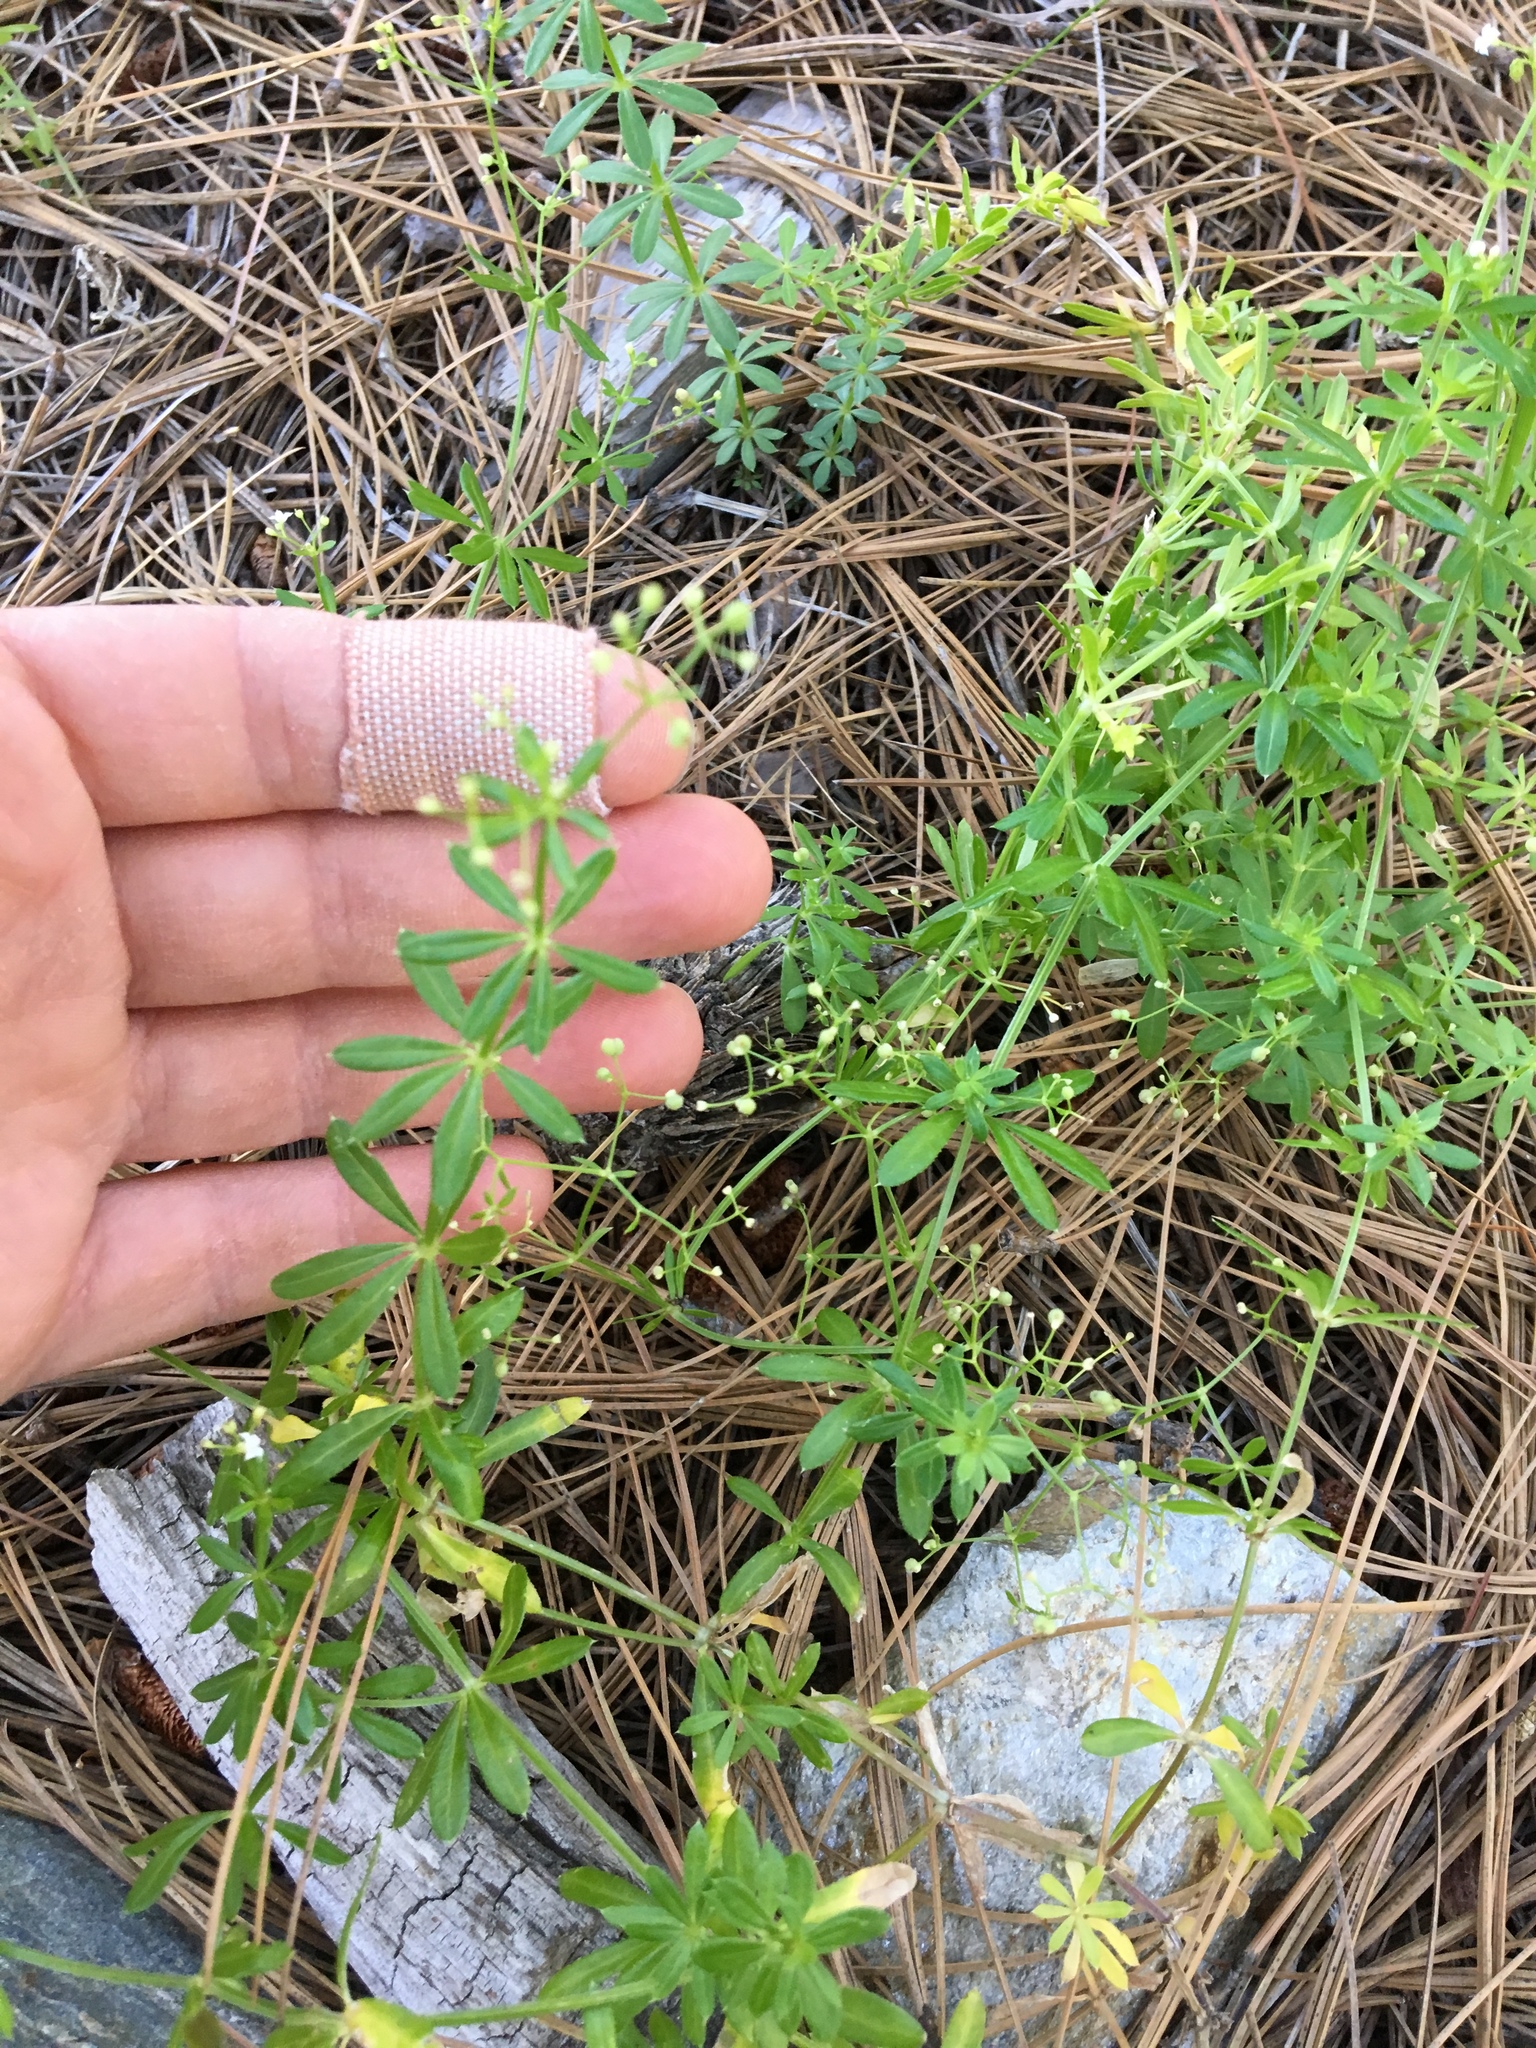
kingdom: Plantae
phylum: Tracheophyta
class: Magnoliopsida
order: Gentianales
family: Rubiaceae
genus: Galium
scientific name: Galium mexicanum
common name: Mexican bedstraw
